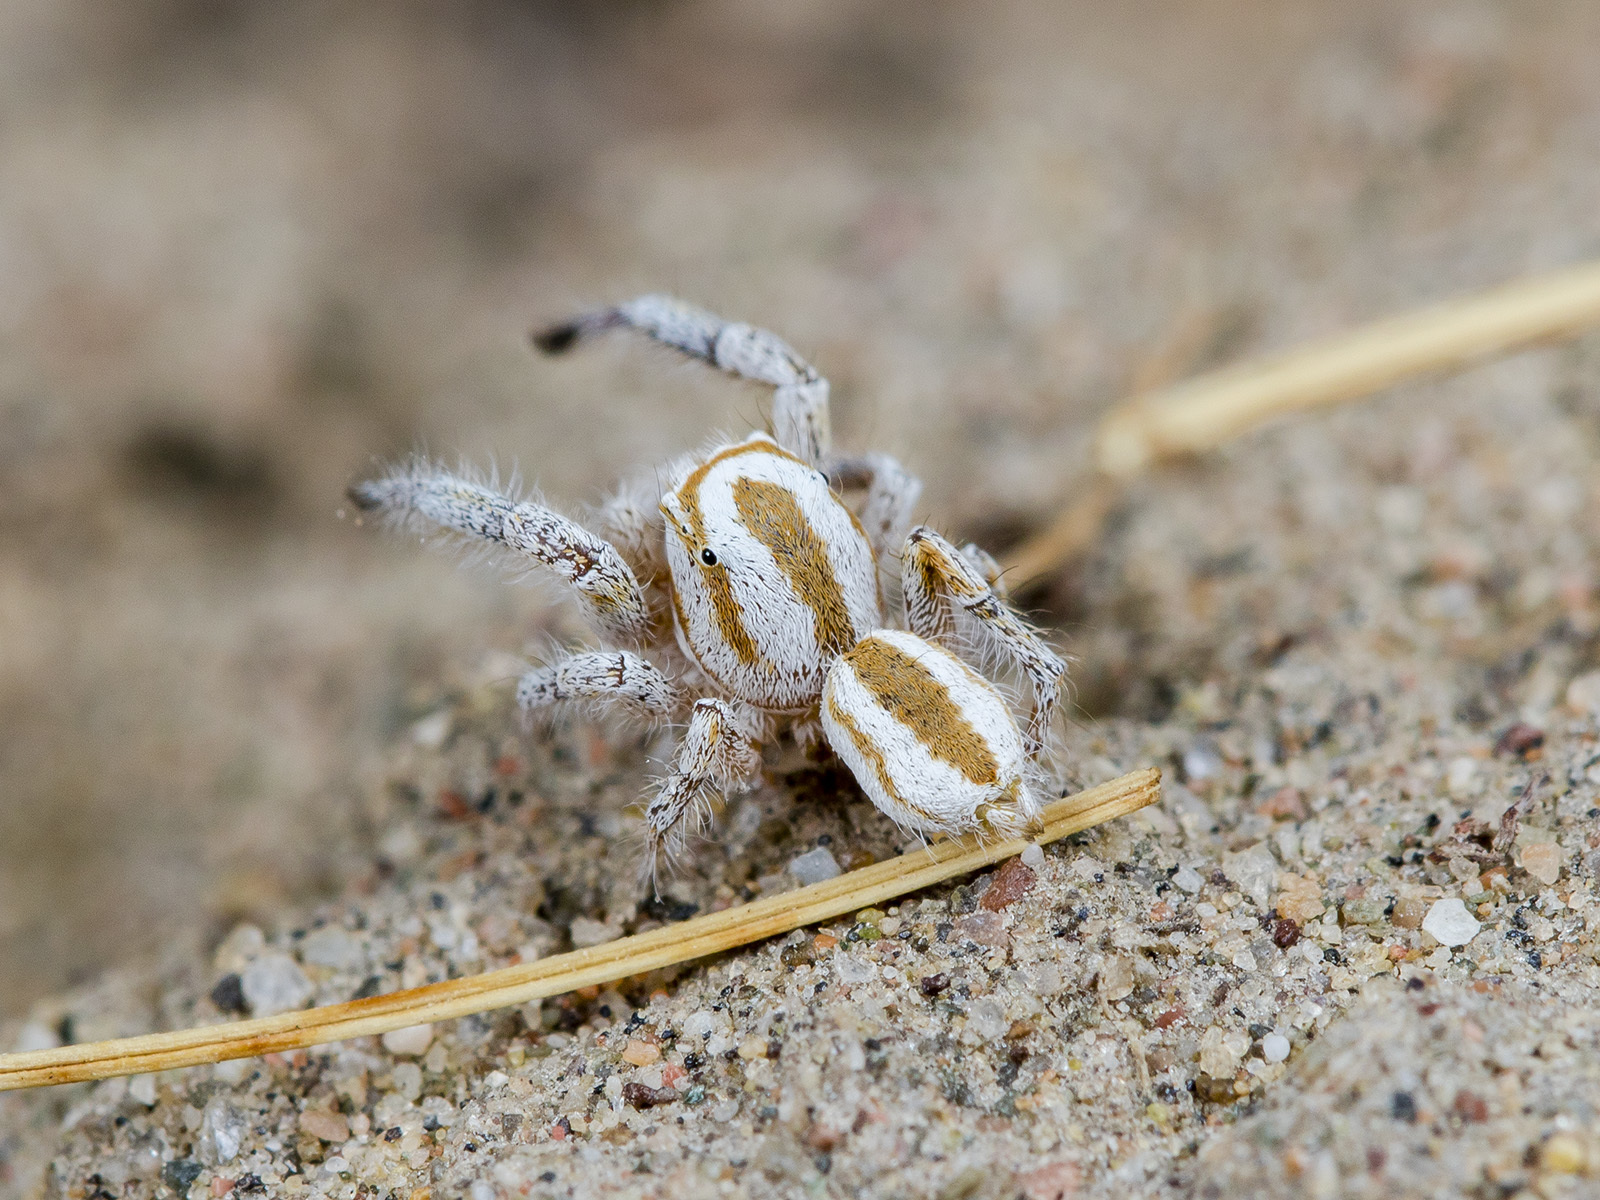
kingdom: Animalia
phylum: Arthropoda
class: Arachnida
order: Araneae
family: Salticidae
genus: Pseudomogrus
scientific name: Pseudomogrus zhilgaensis
